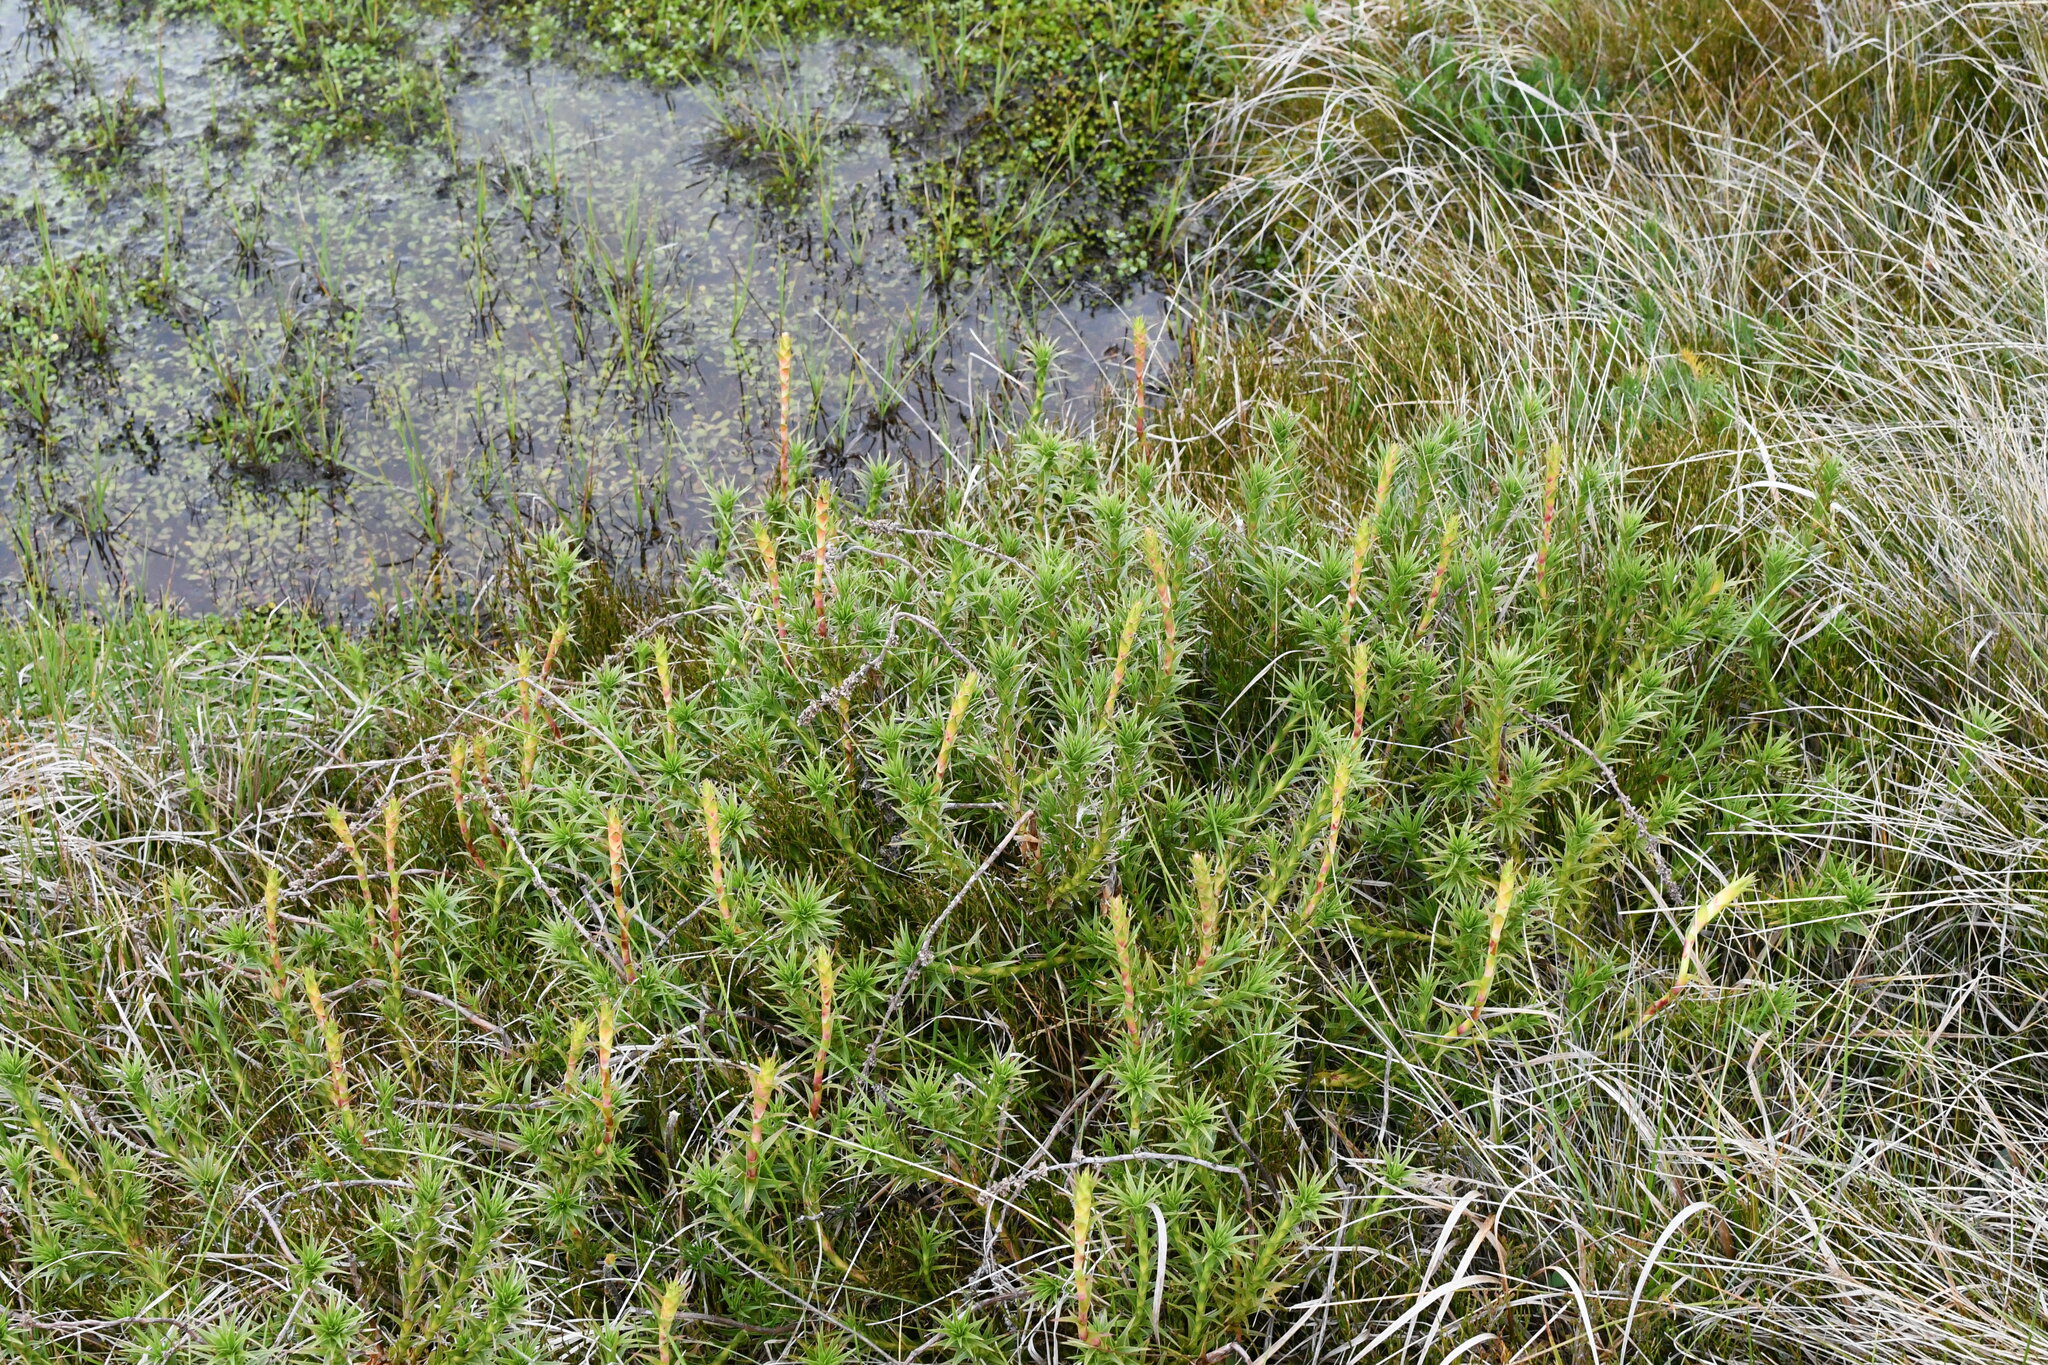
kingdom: Plantae
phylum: Tracheophyta
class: Magnoliopsida
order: Ericales
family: Ericaceae
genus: Dracophyllum
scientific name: Dracophyllum continentis
